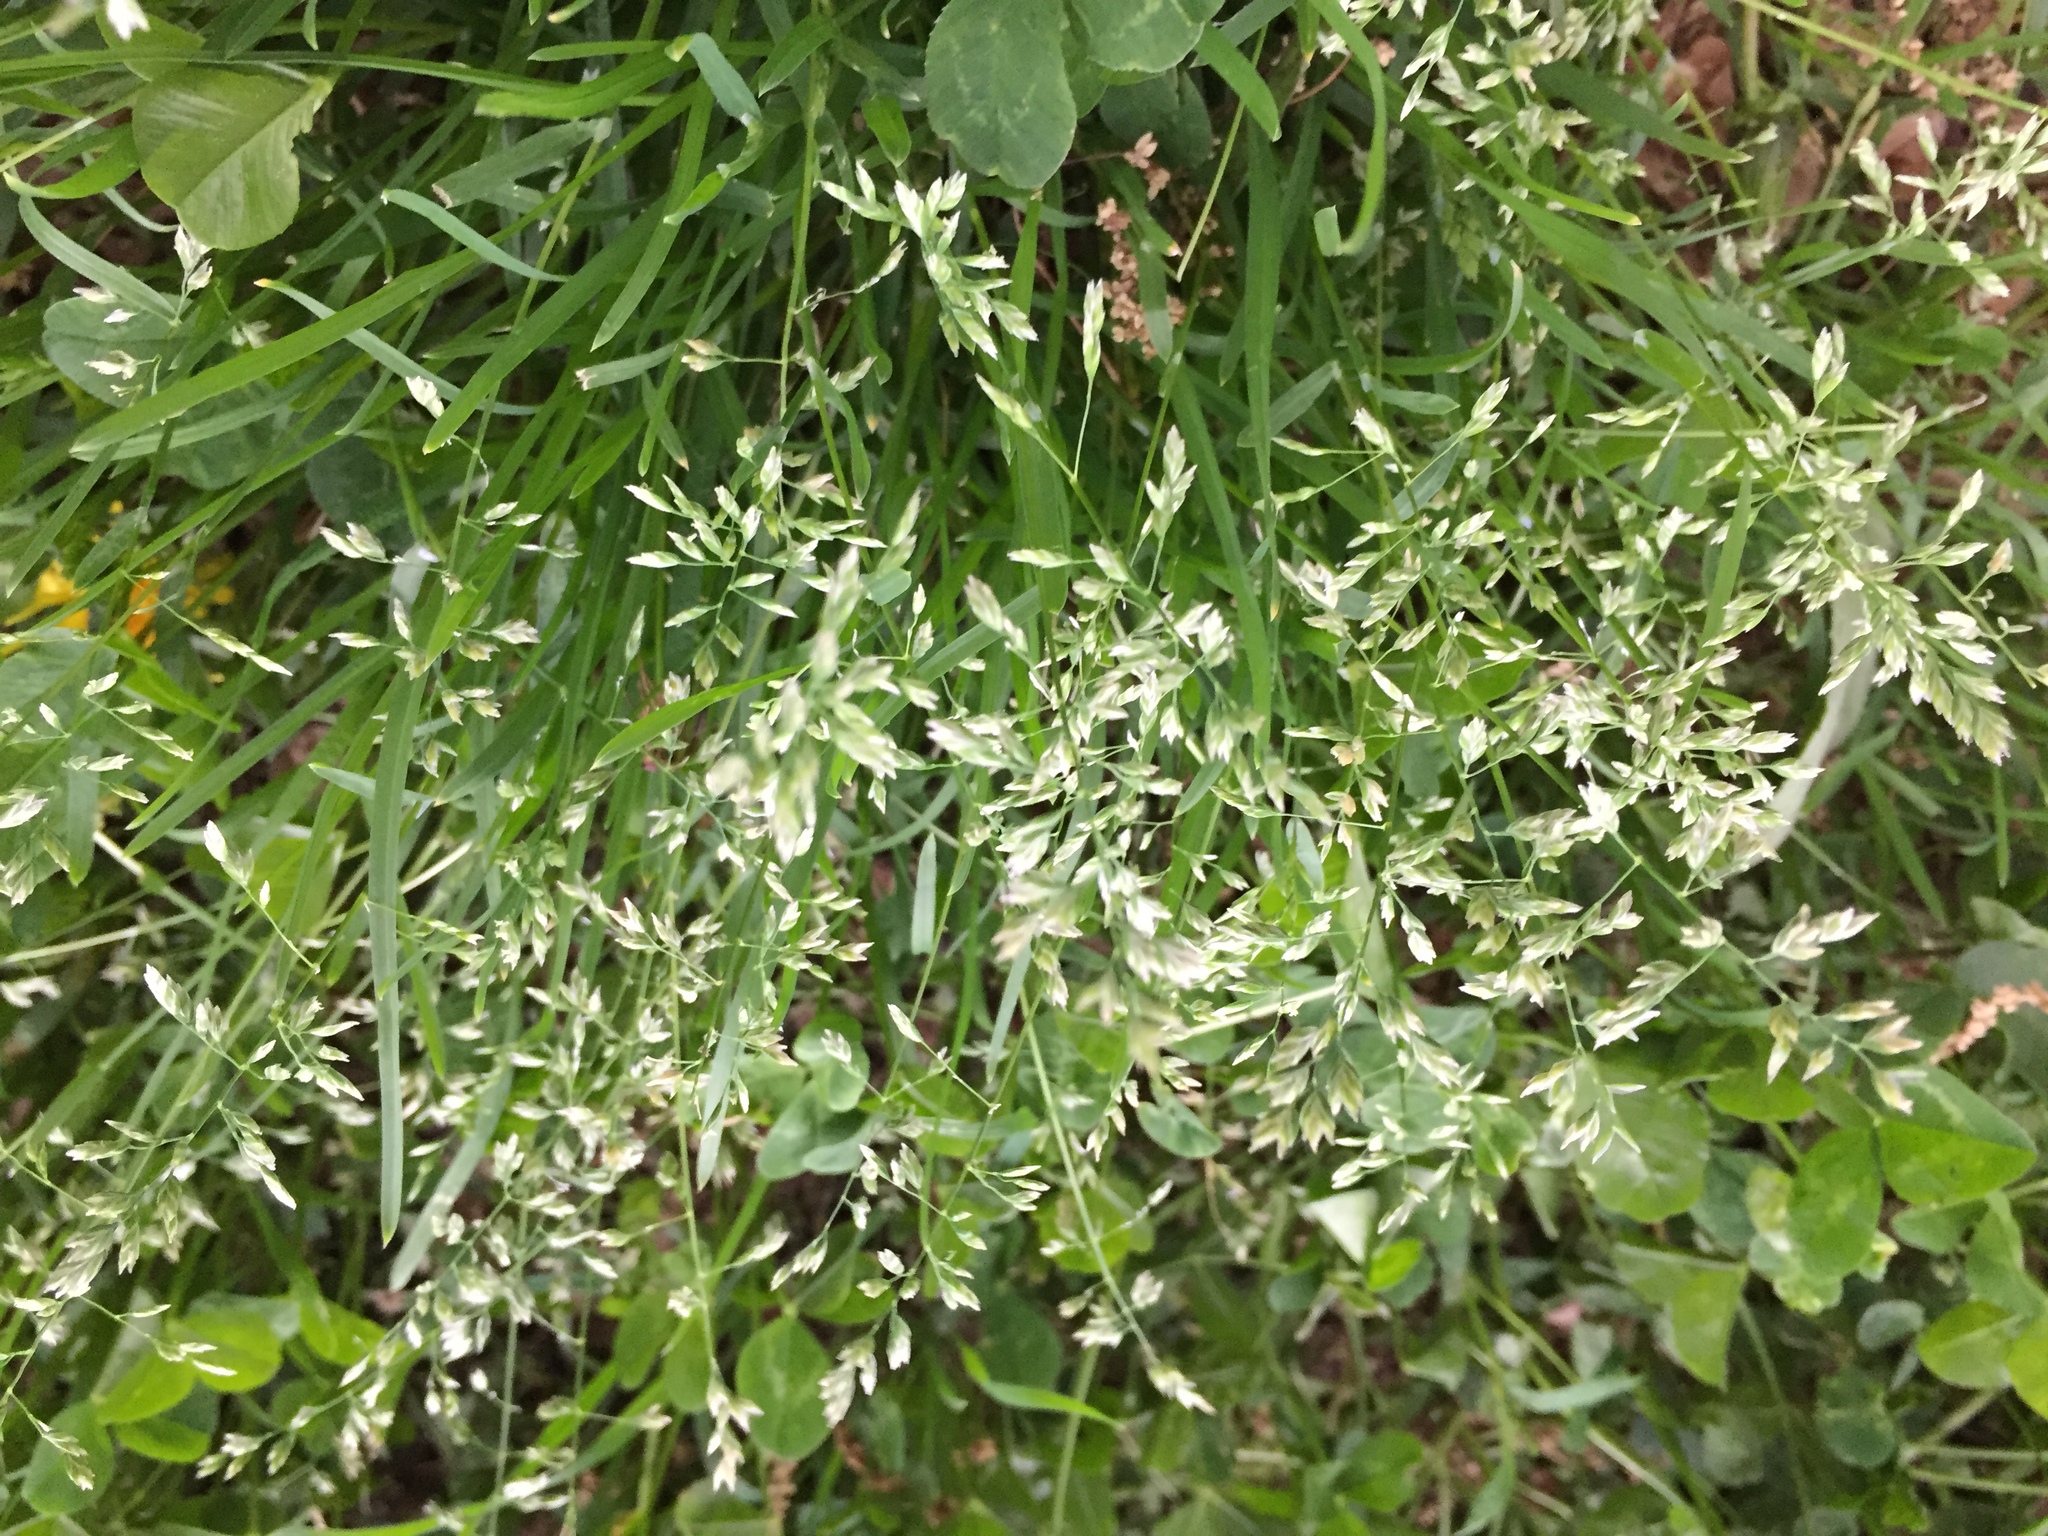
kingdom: Plantae
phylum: Tracheophyta
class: Liliopsida
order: Poales
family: Poaceae
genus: Poa
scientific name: Poa annua
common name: Annual bluegrass
